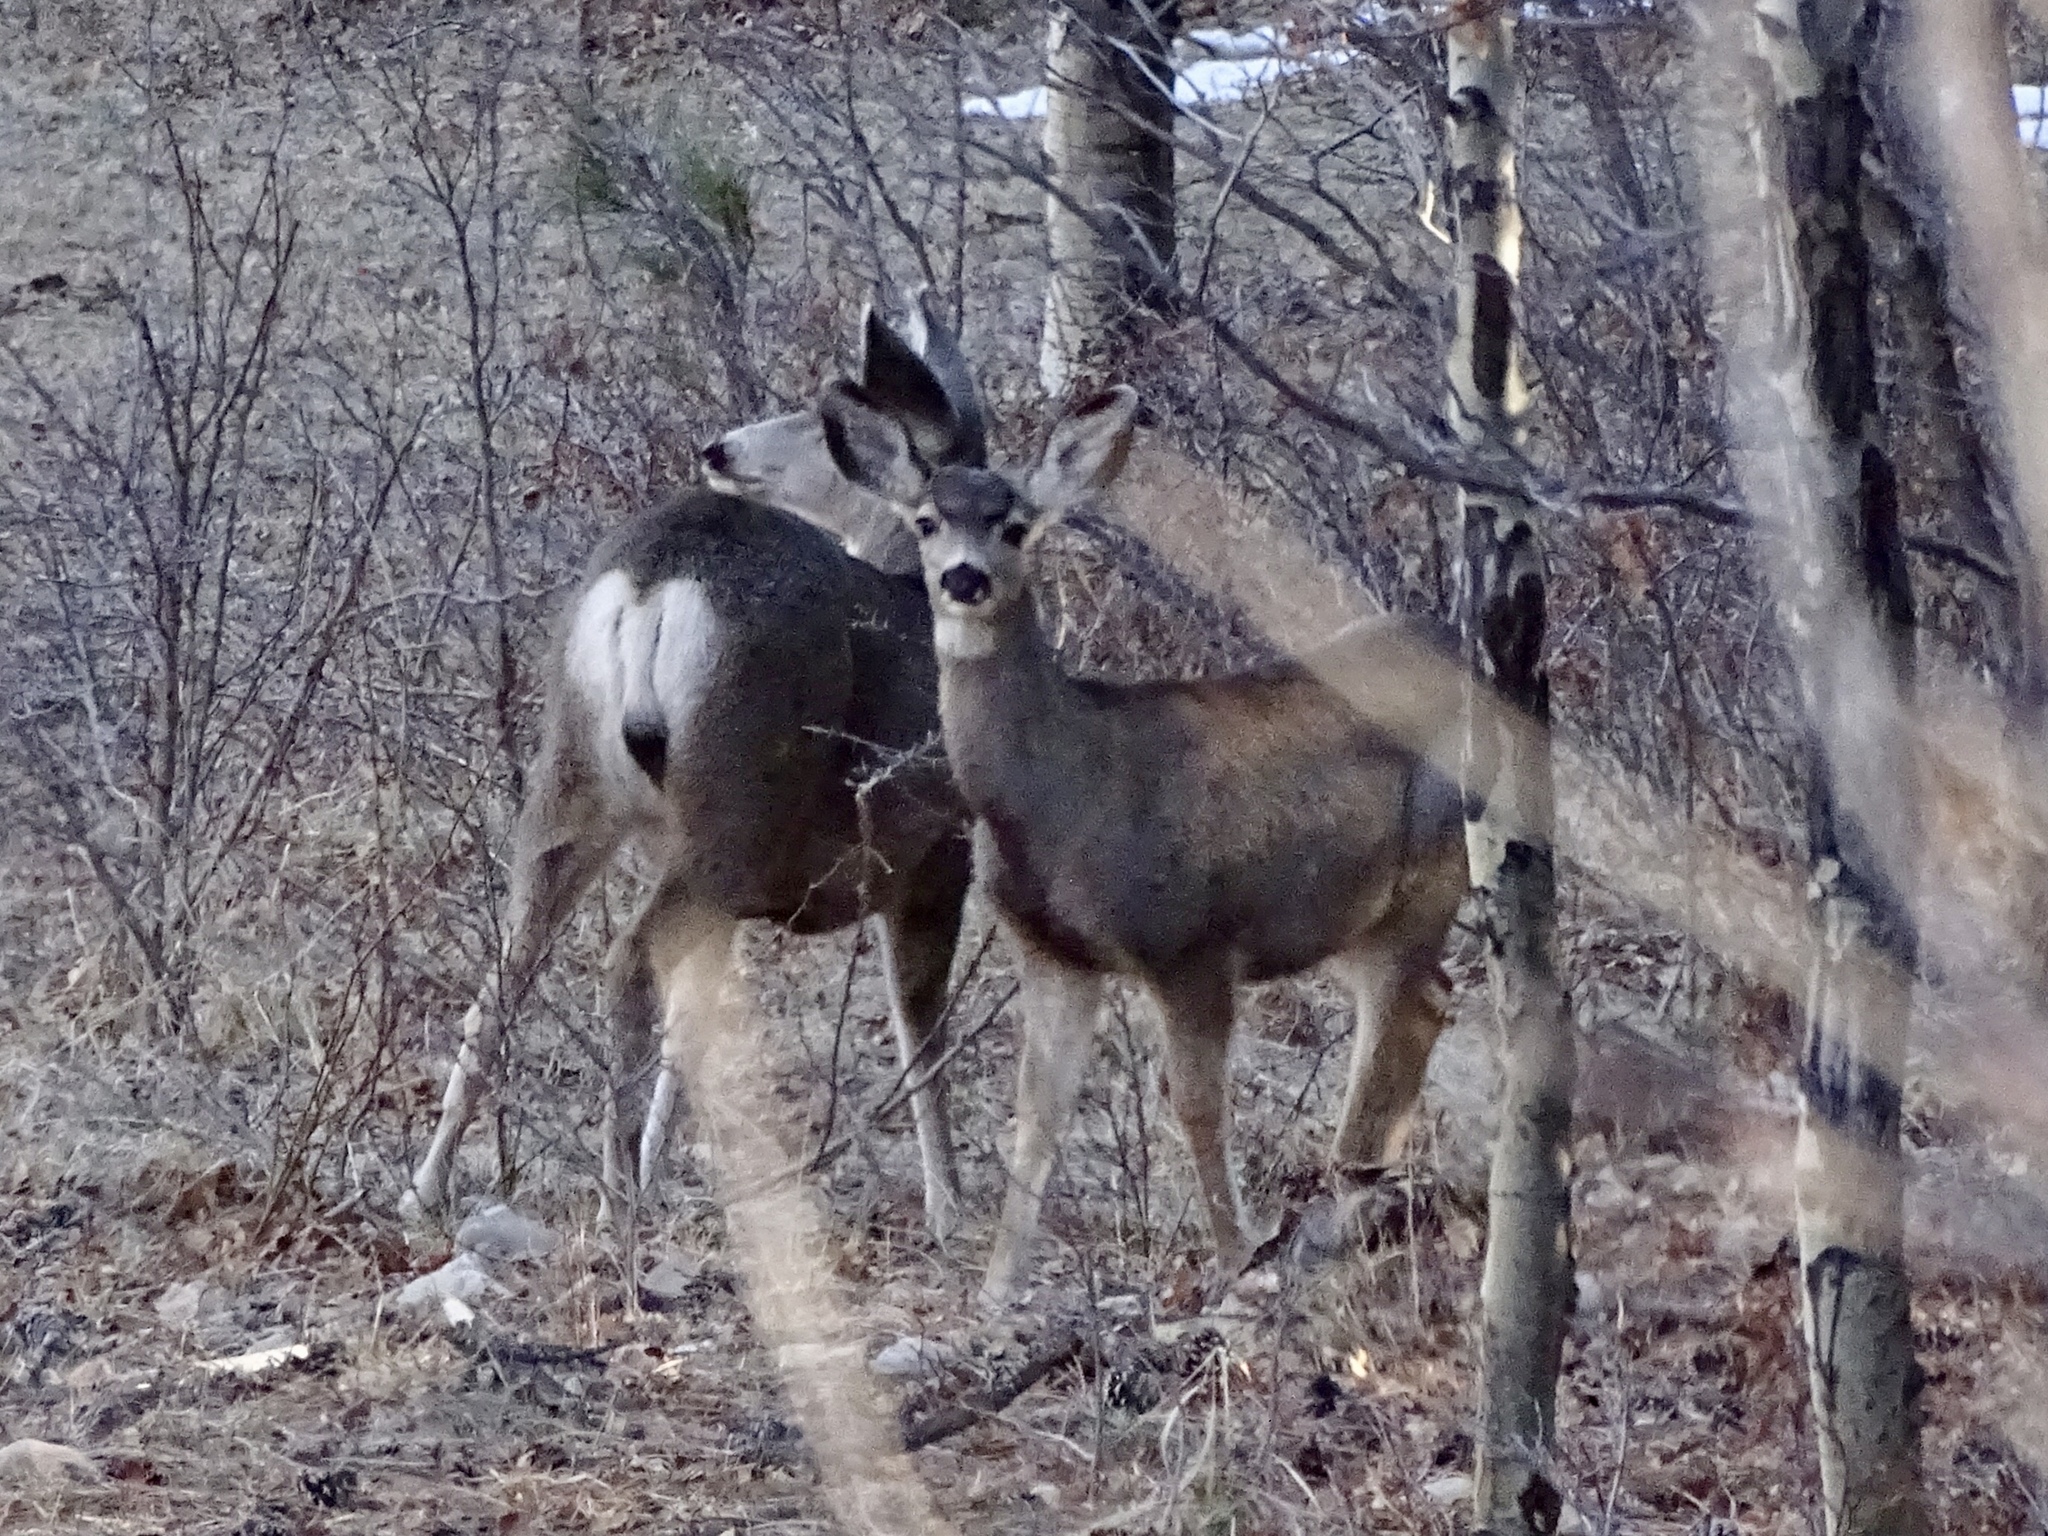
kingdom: Animalia
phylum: Chordata
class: Mammalia
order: Artiodactyla
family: Cervidae
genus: Odocoileus
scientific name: Odocoileus hemionus
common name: Mule deer
